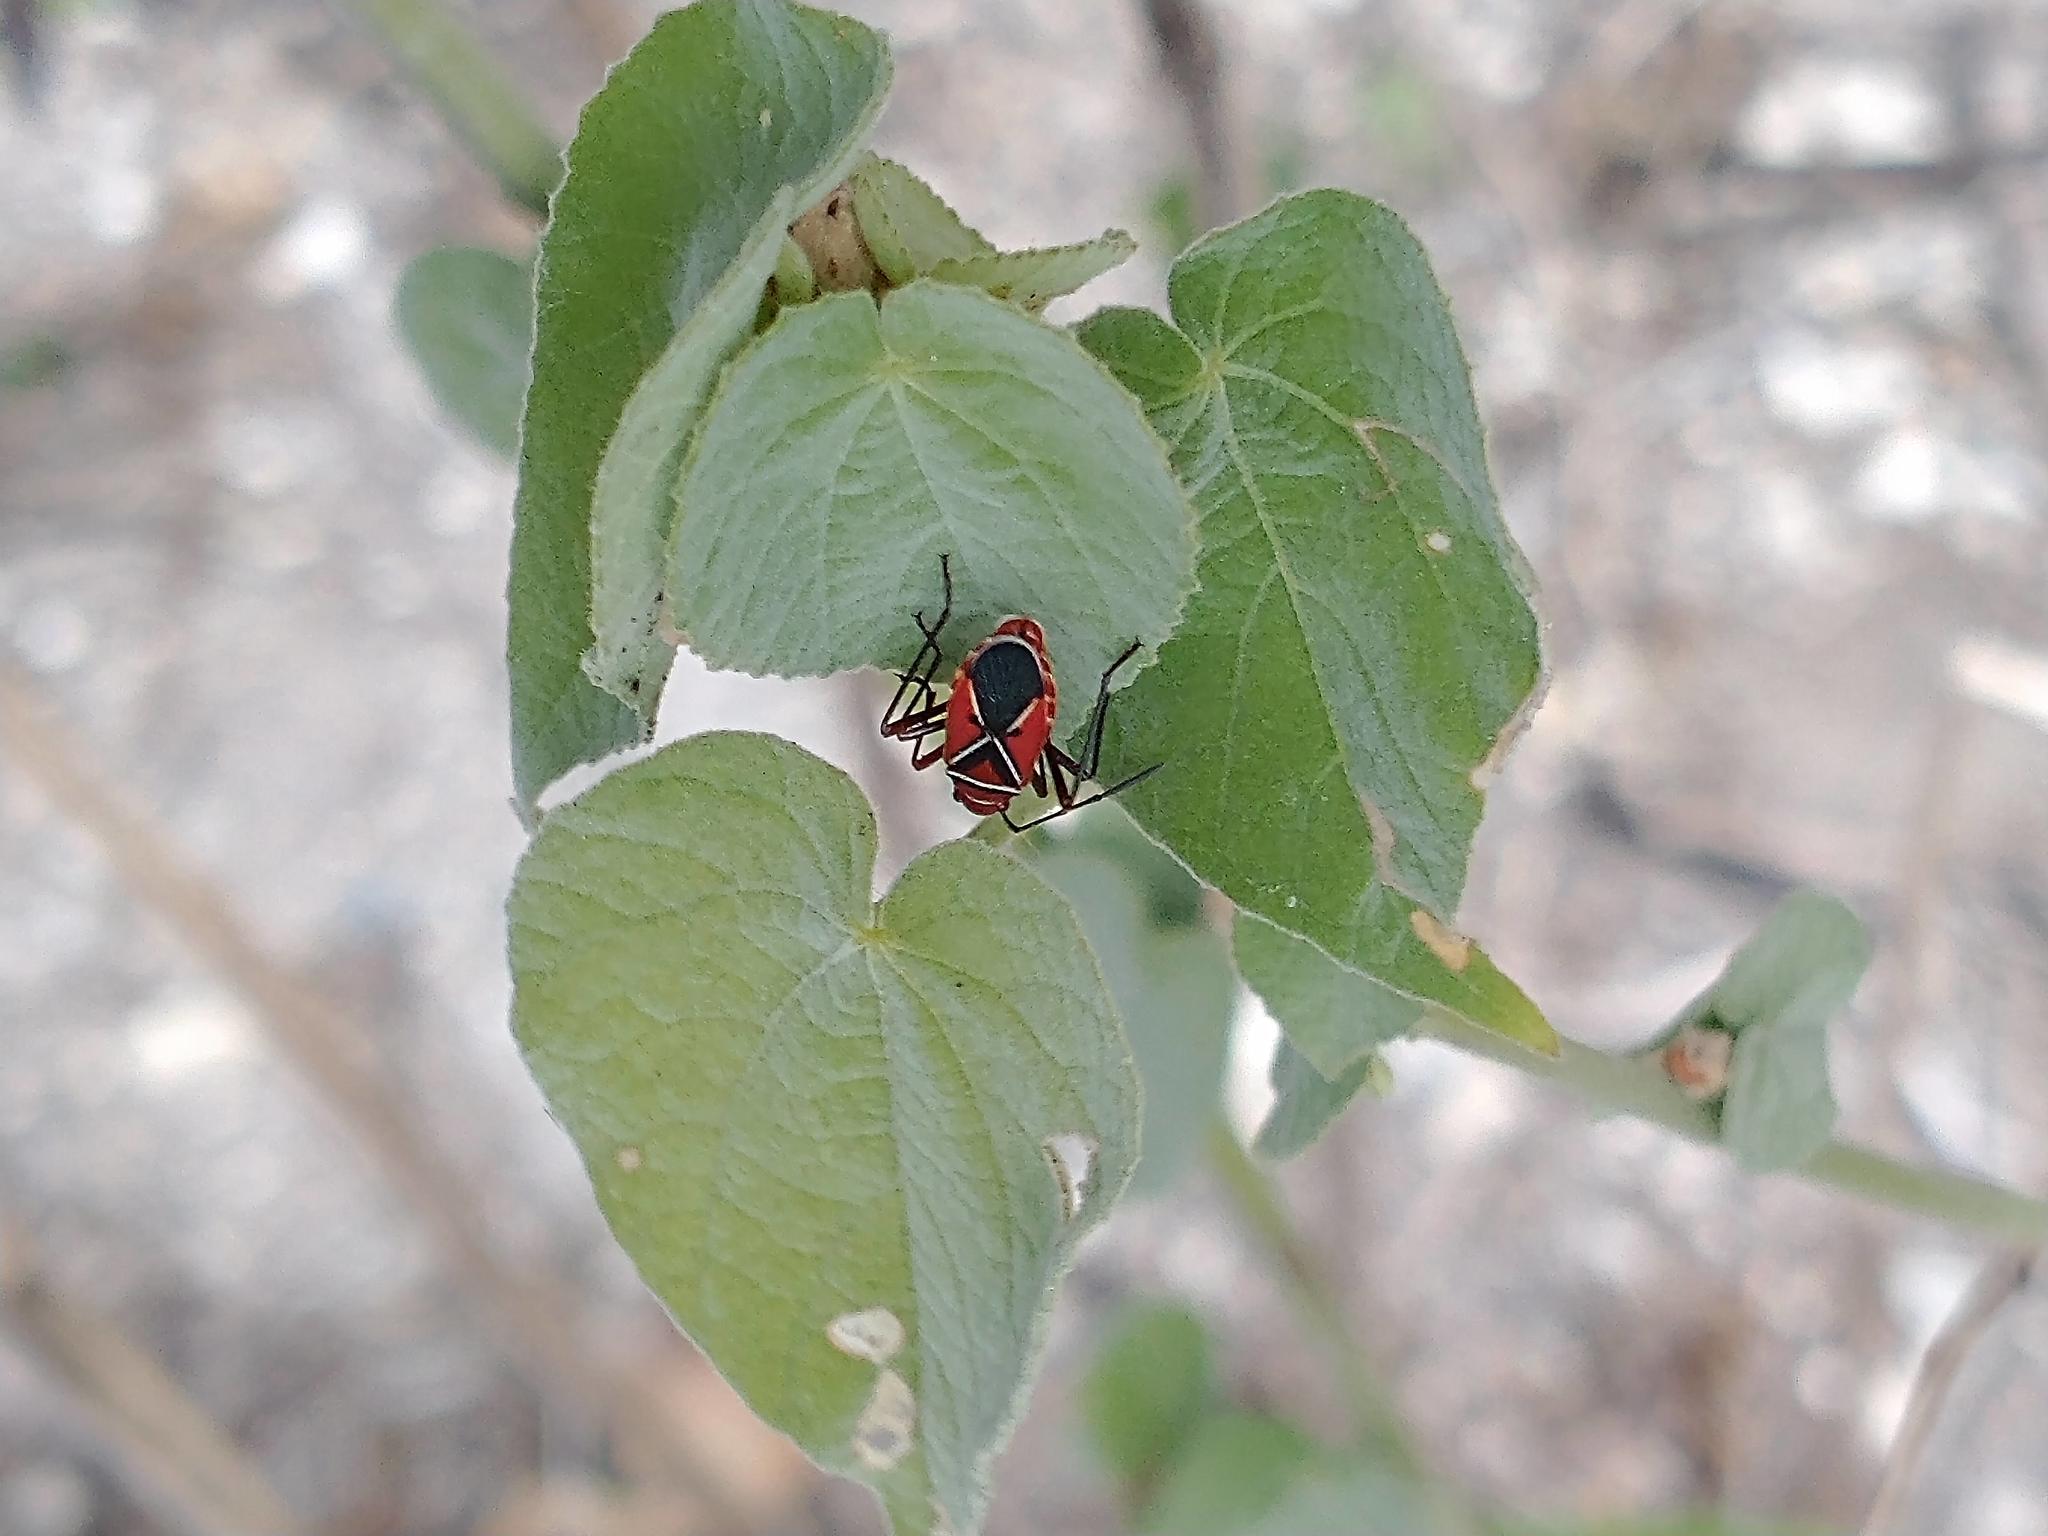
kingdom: Animalia
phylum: Arthropoda
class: Insecta
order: Hemiptera
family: Pyrrhocoridae
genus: Dysdercus
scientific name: Dysdercus andreae
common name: St. andrew's cotton stainer
